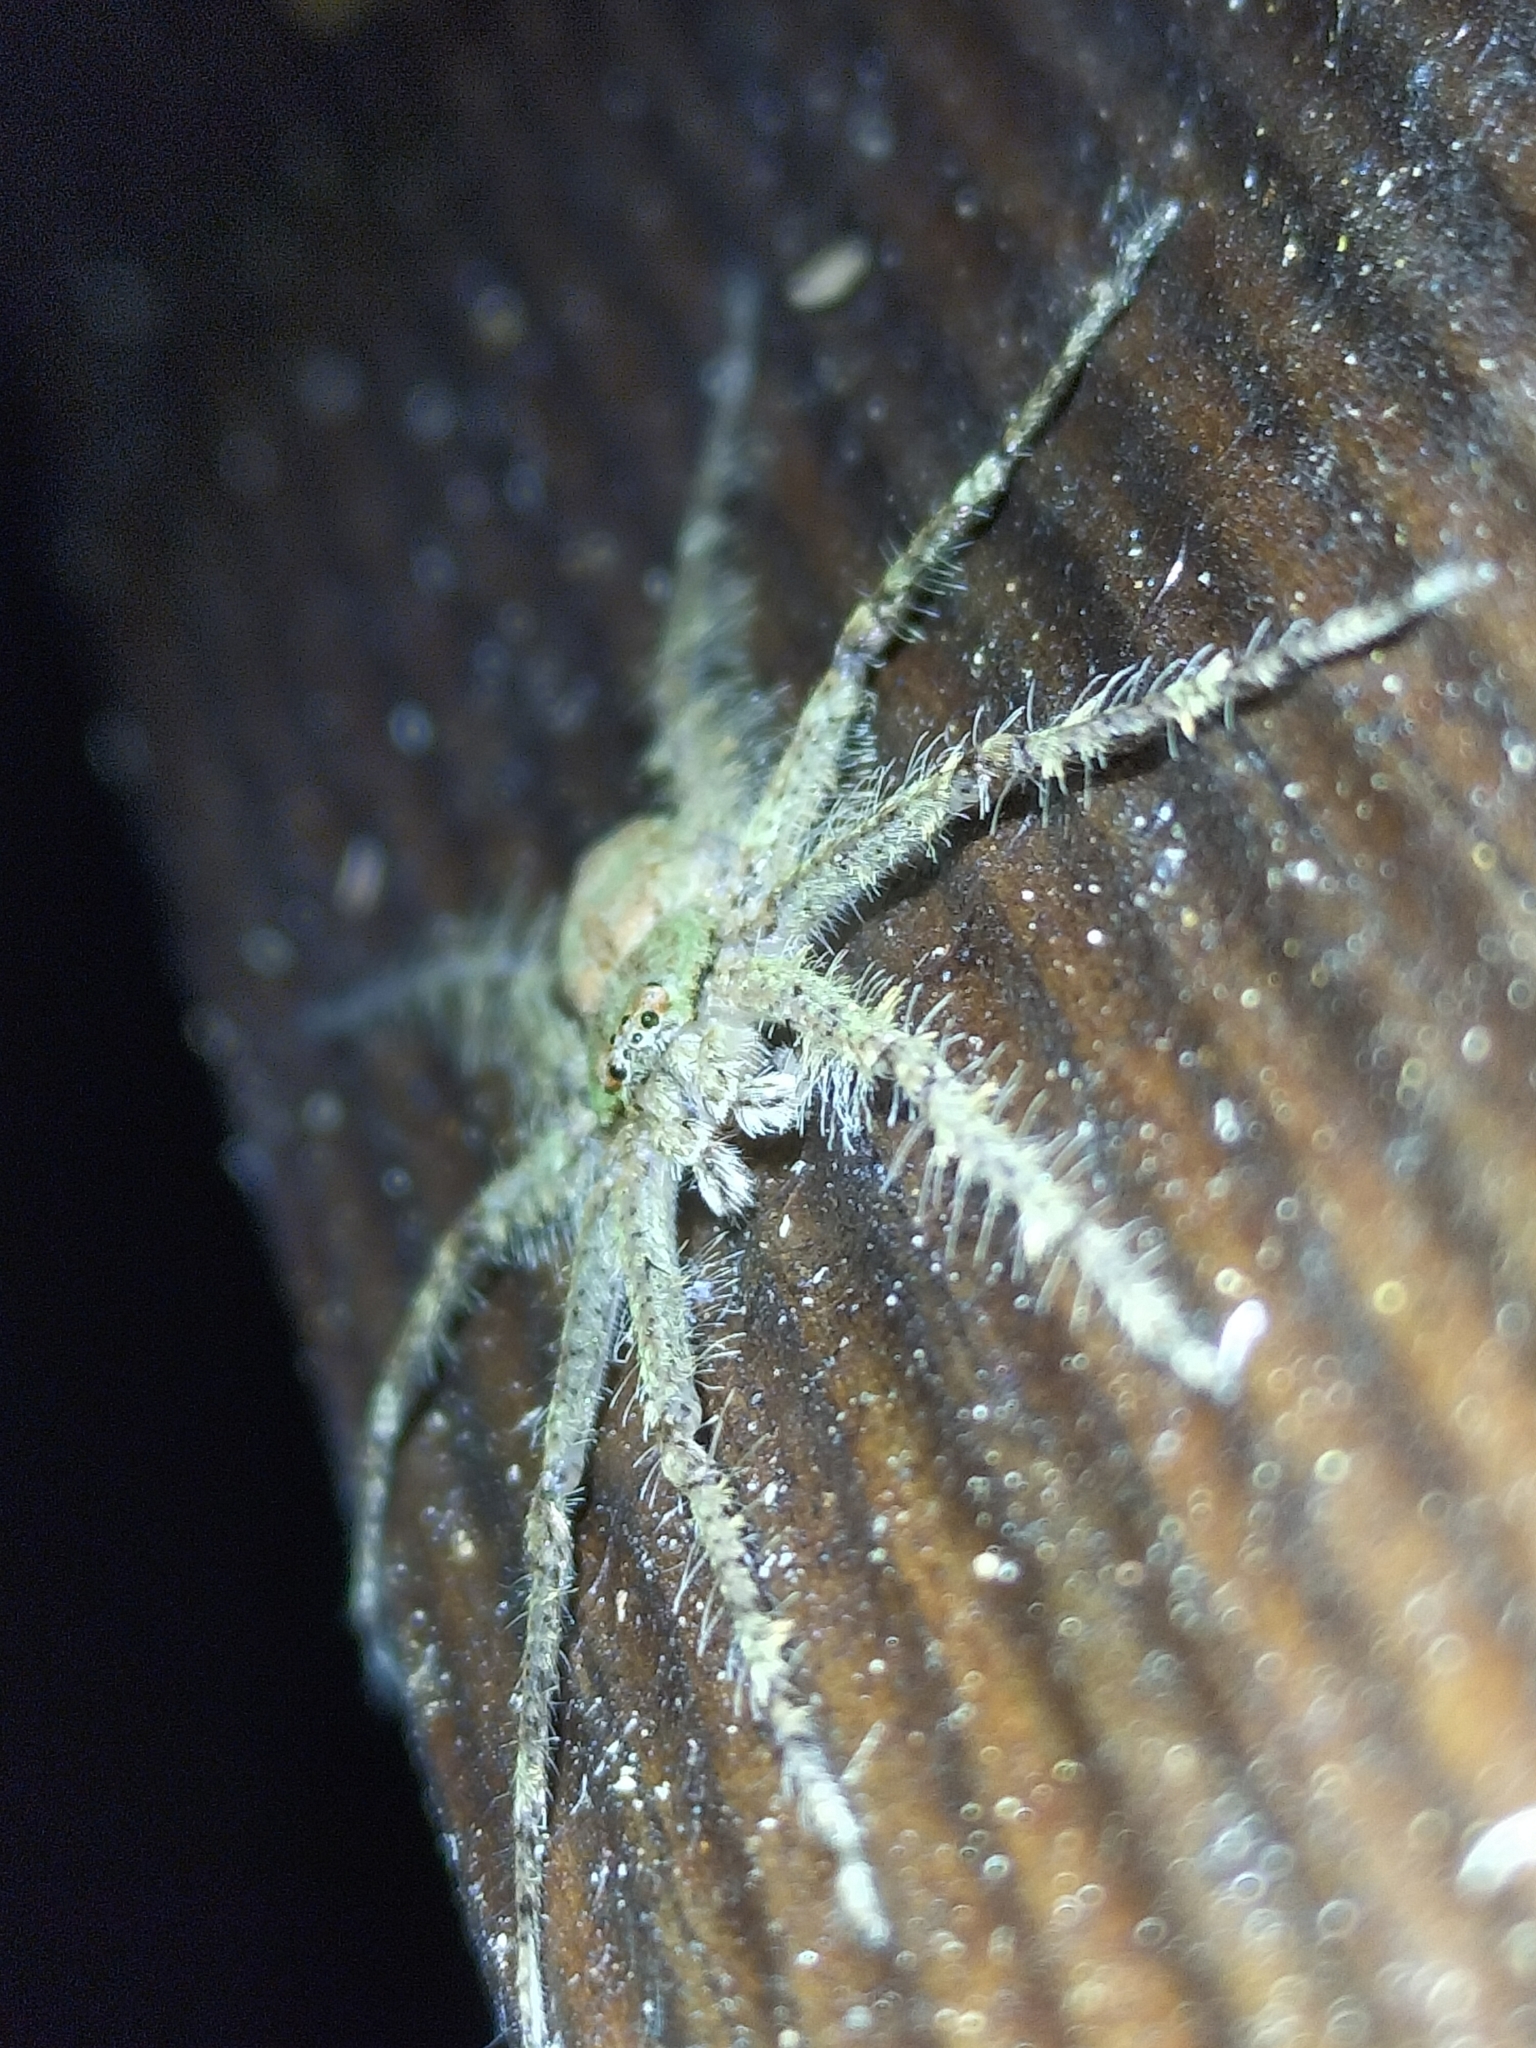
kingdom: Animalia
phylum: Arthropoda
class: Arachnida
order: Araneae
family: Sparassidae
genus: Pandercetes
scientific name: Pandercetes gracilis
